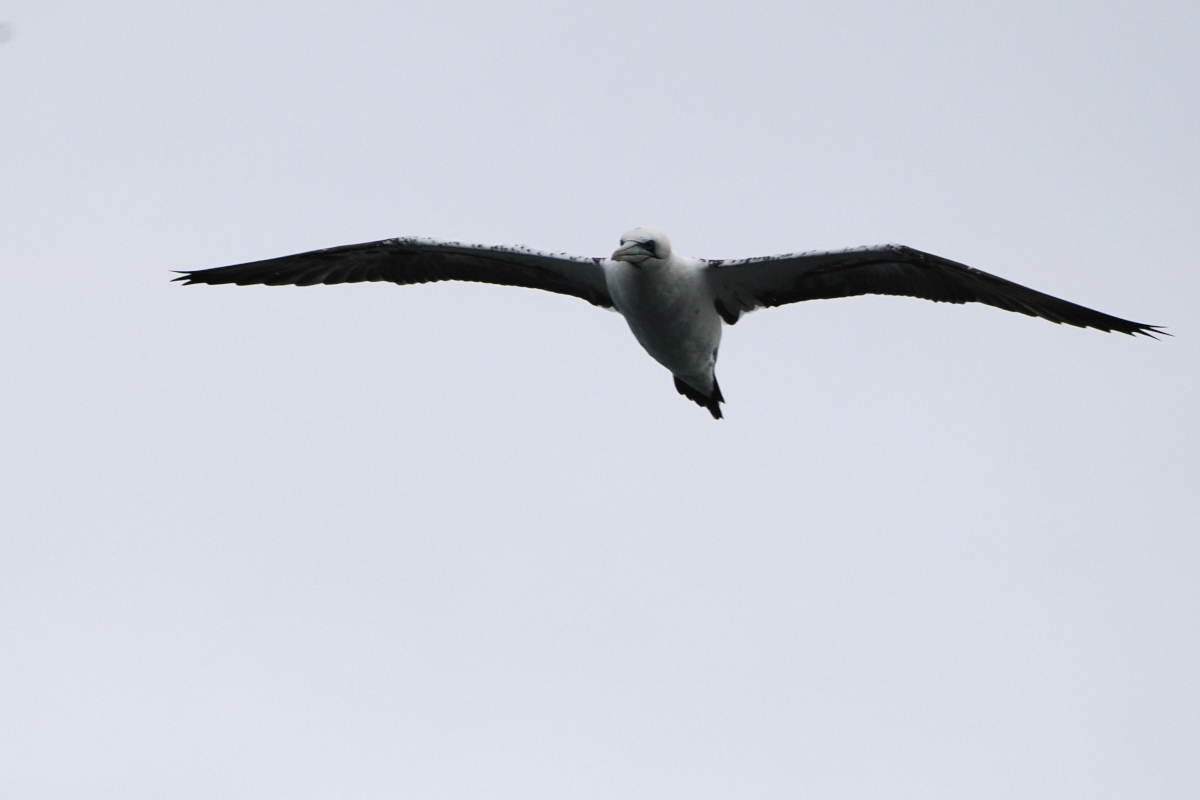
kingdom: Animalia
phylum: Chordata
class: Aves
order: Suliformes
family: Sulidae
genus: Morus
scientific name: Morus bassanus
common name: Northern gannet
